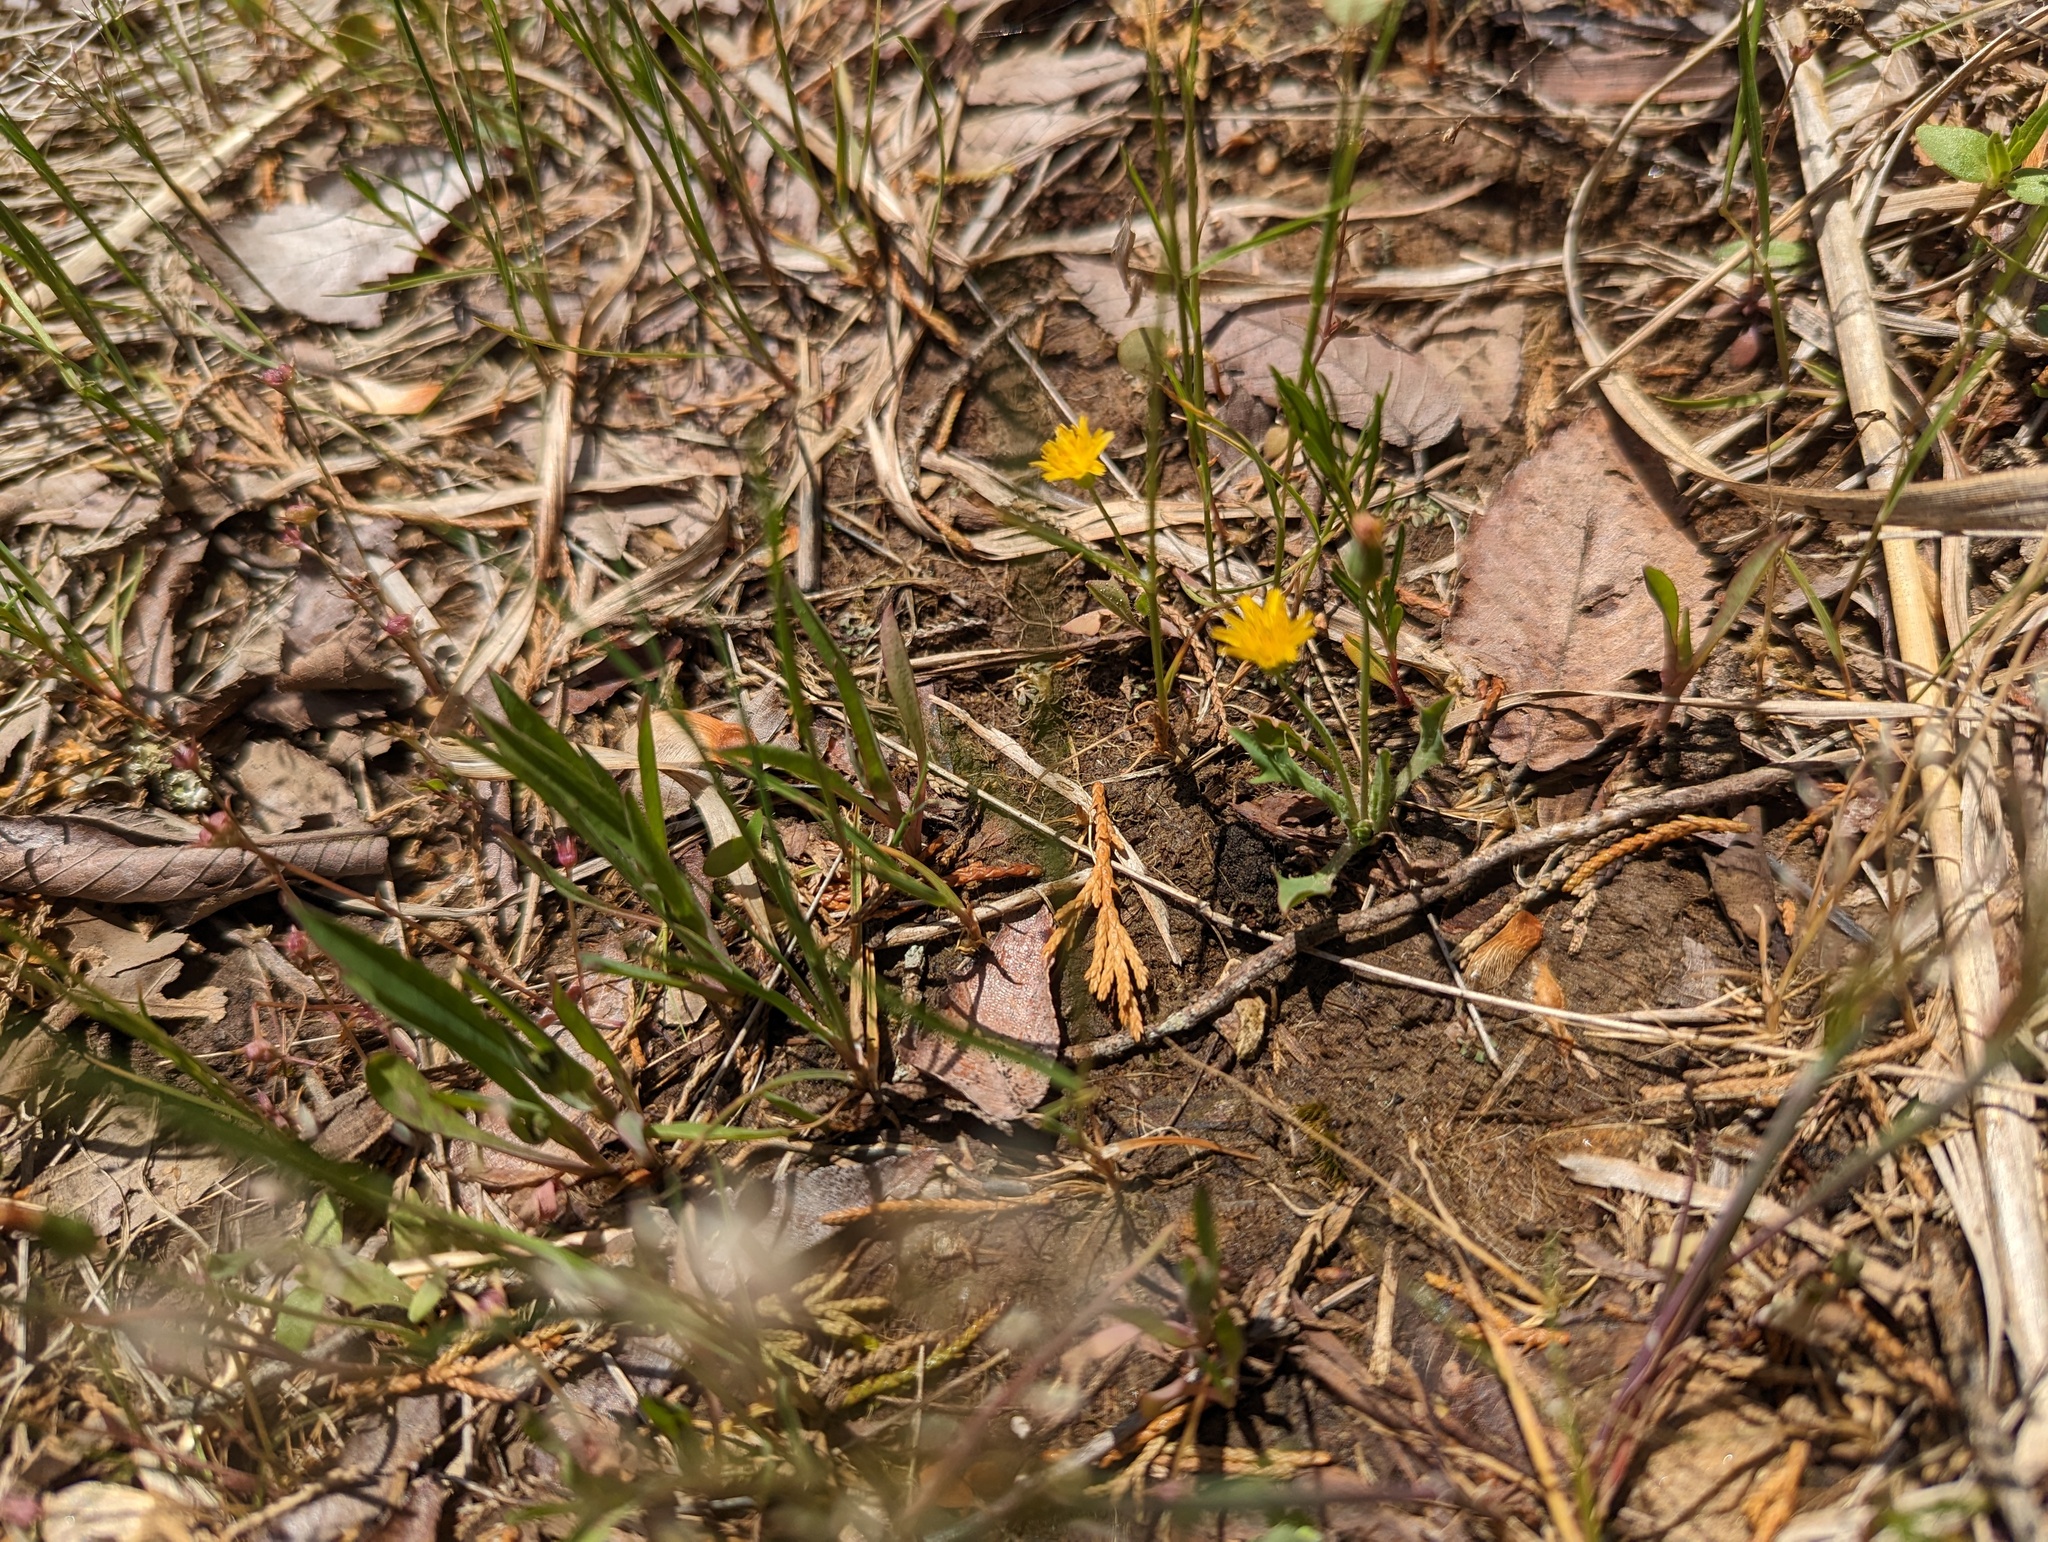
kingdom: Plantae
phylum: Tracheophyta
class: Magnoliopsida
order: Asterales
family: Asteraceae
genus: Krigia
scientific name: Krigia virginica
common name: Virginia dwarf-dandelion
